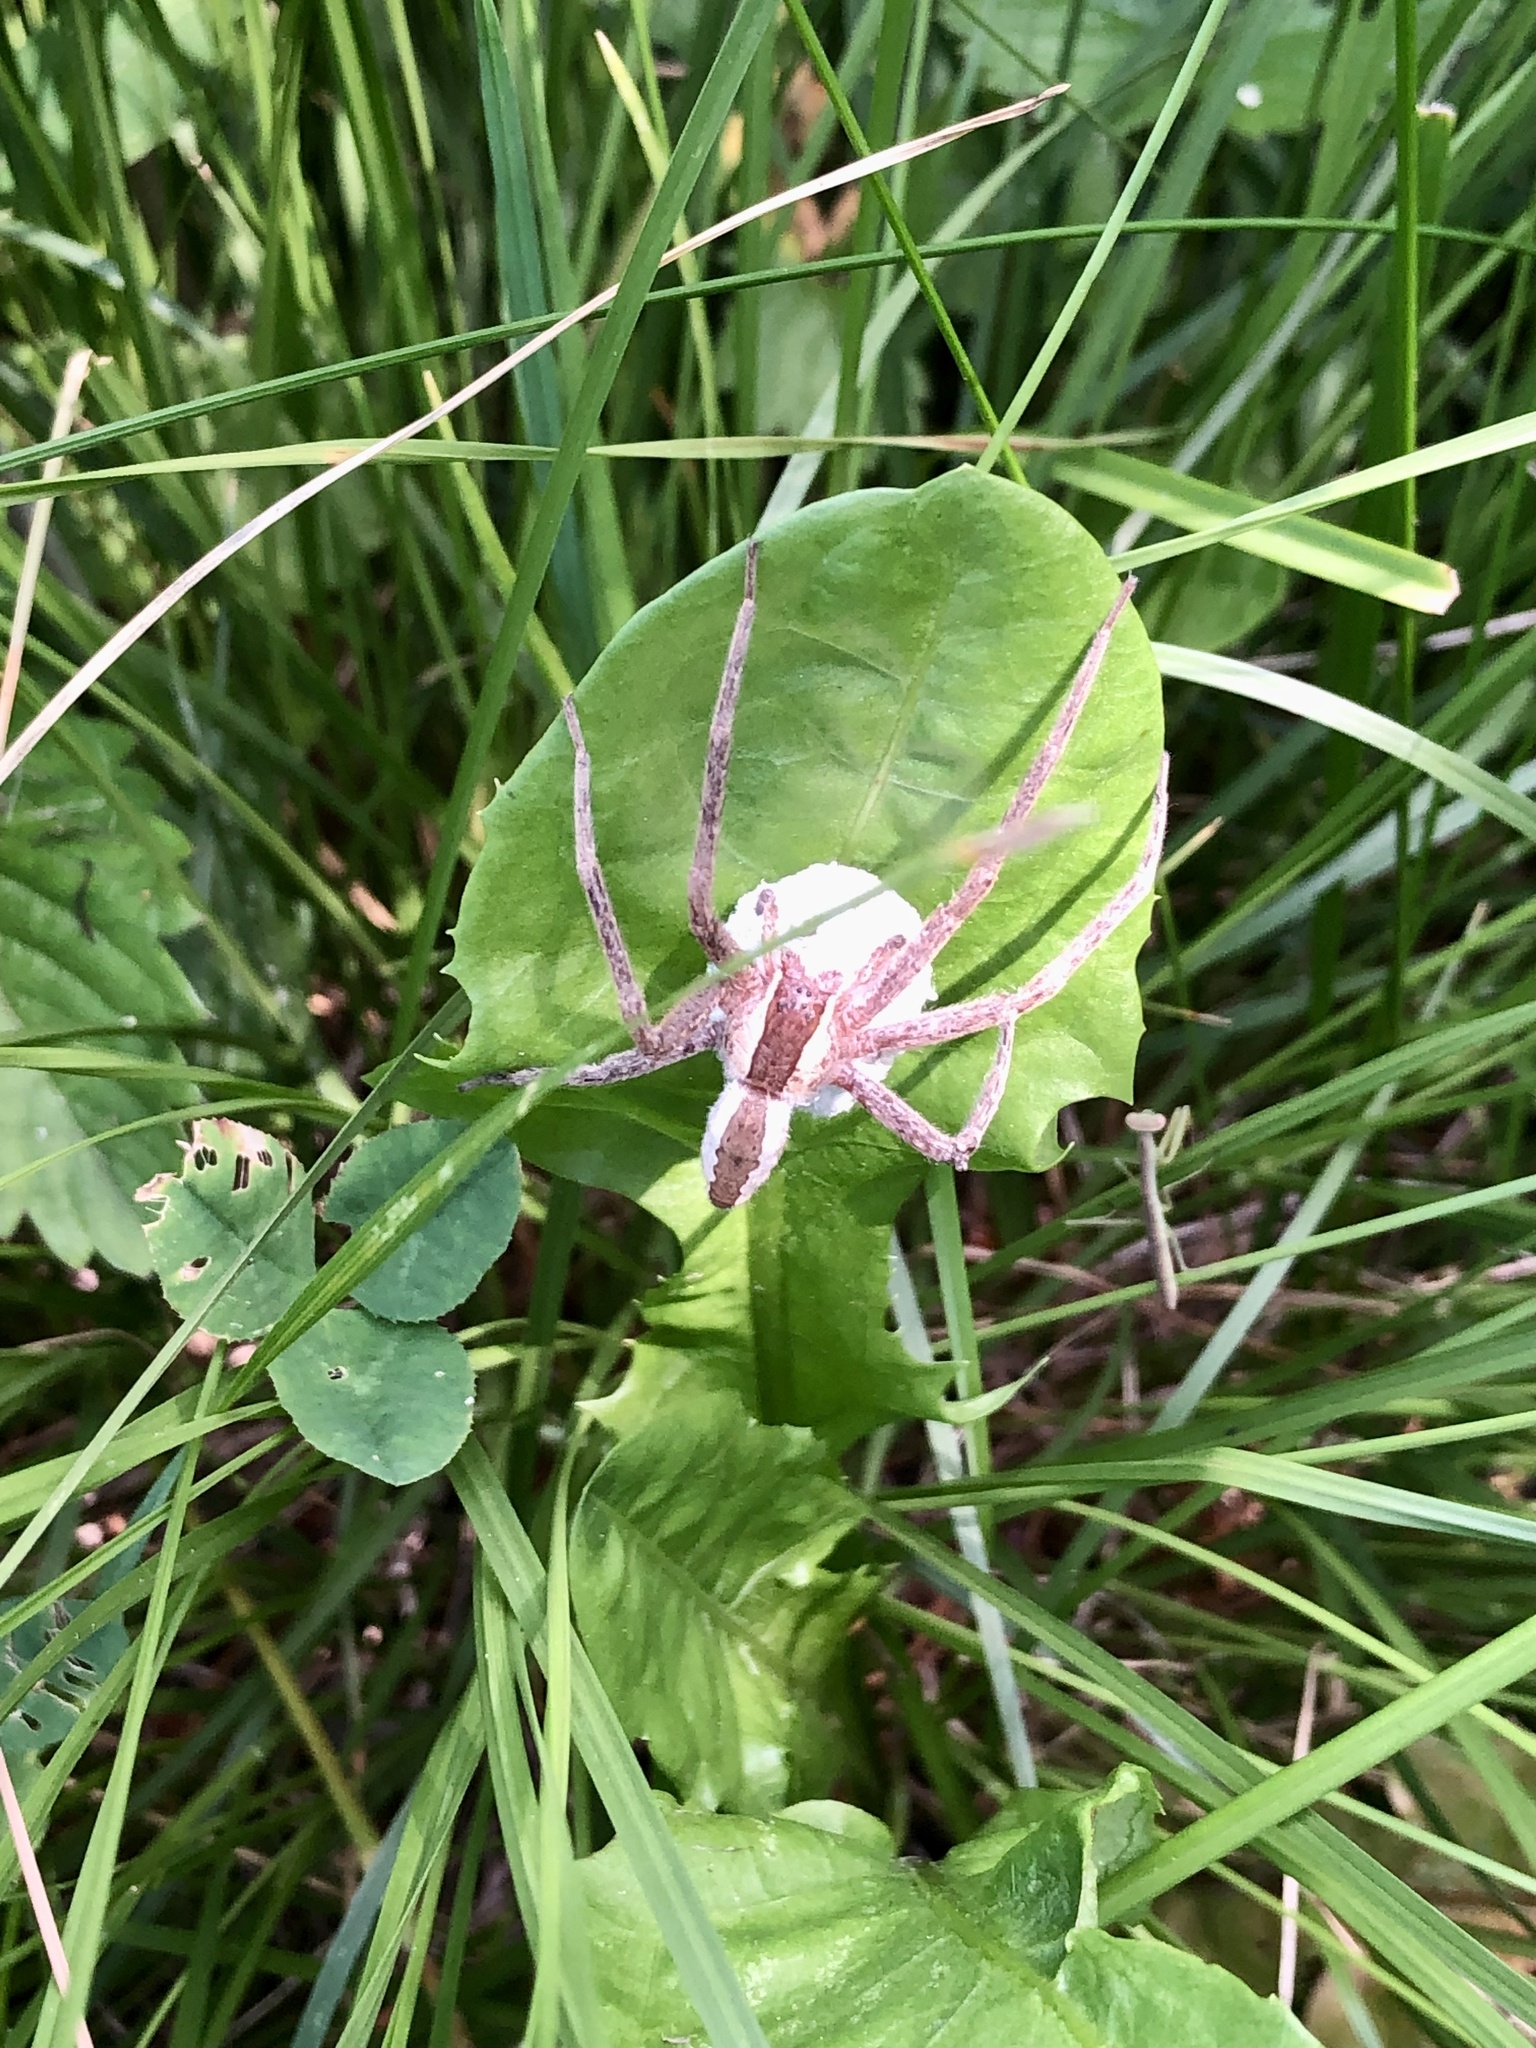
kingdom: Animalia
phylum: Arthropoda
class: Arachnida
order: Araneae
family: Pisauridae
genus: Pisaurina
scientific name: Pisaurina mira
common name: American nursery web spider
